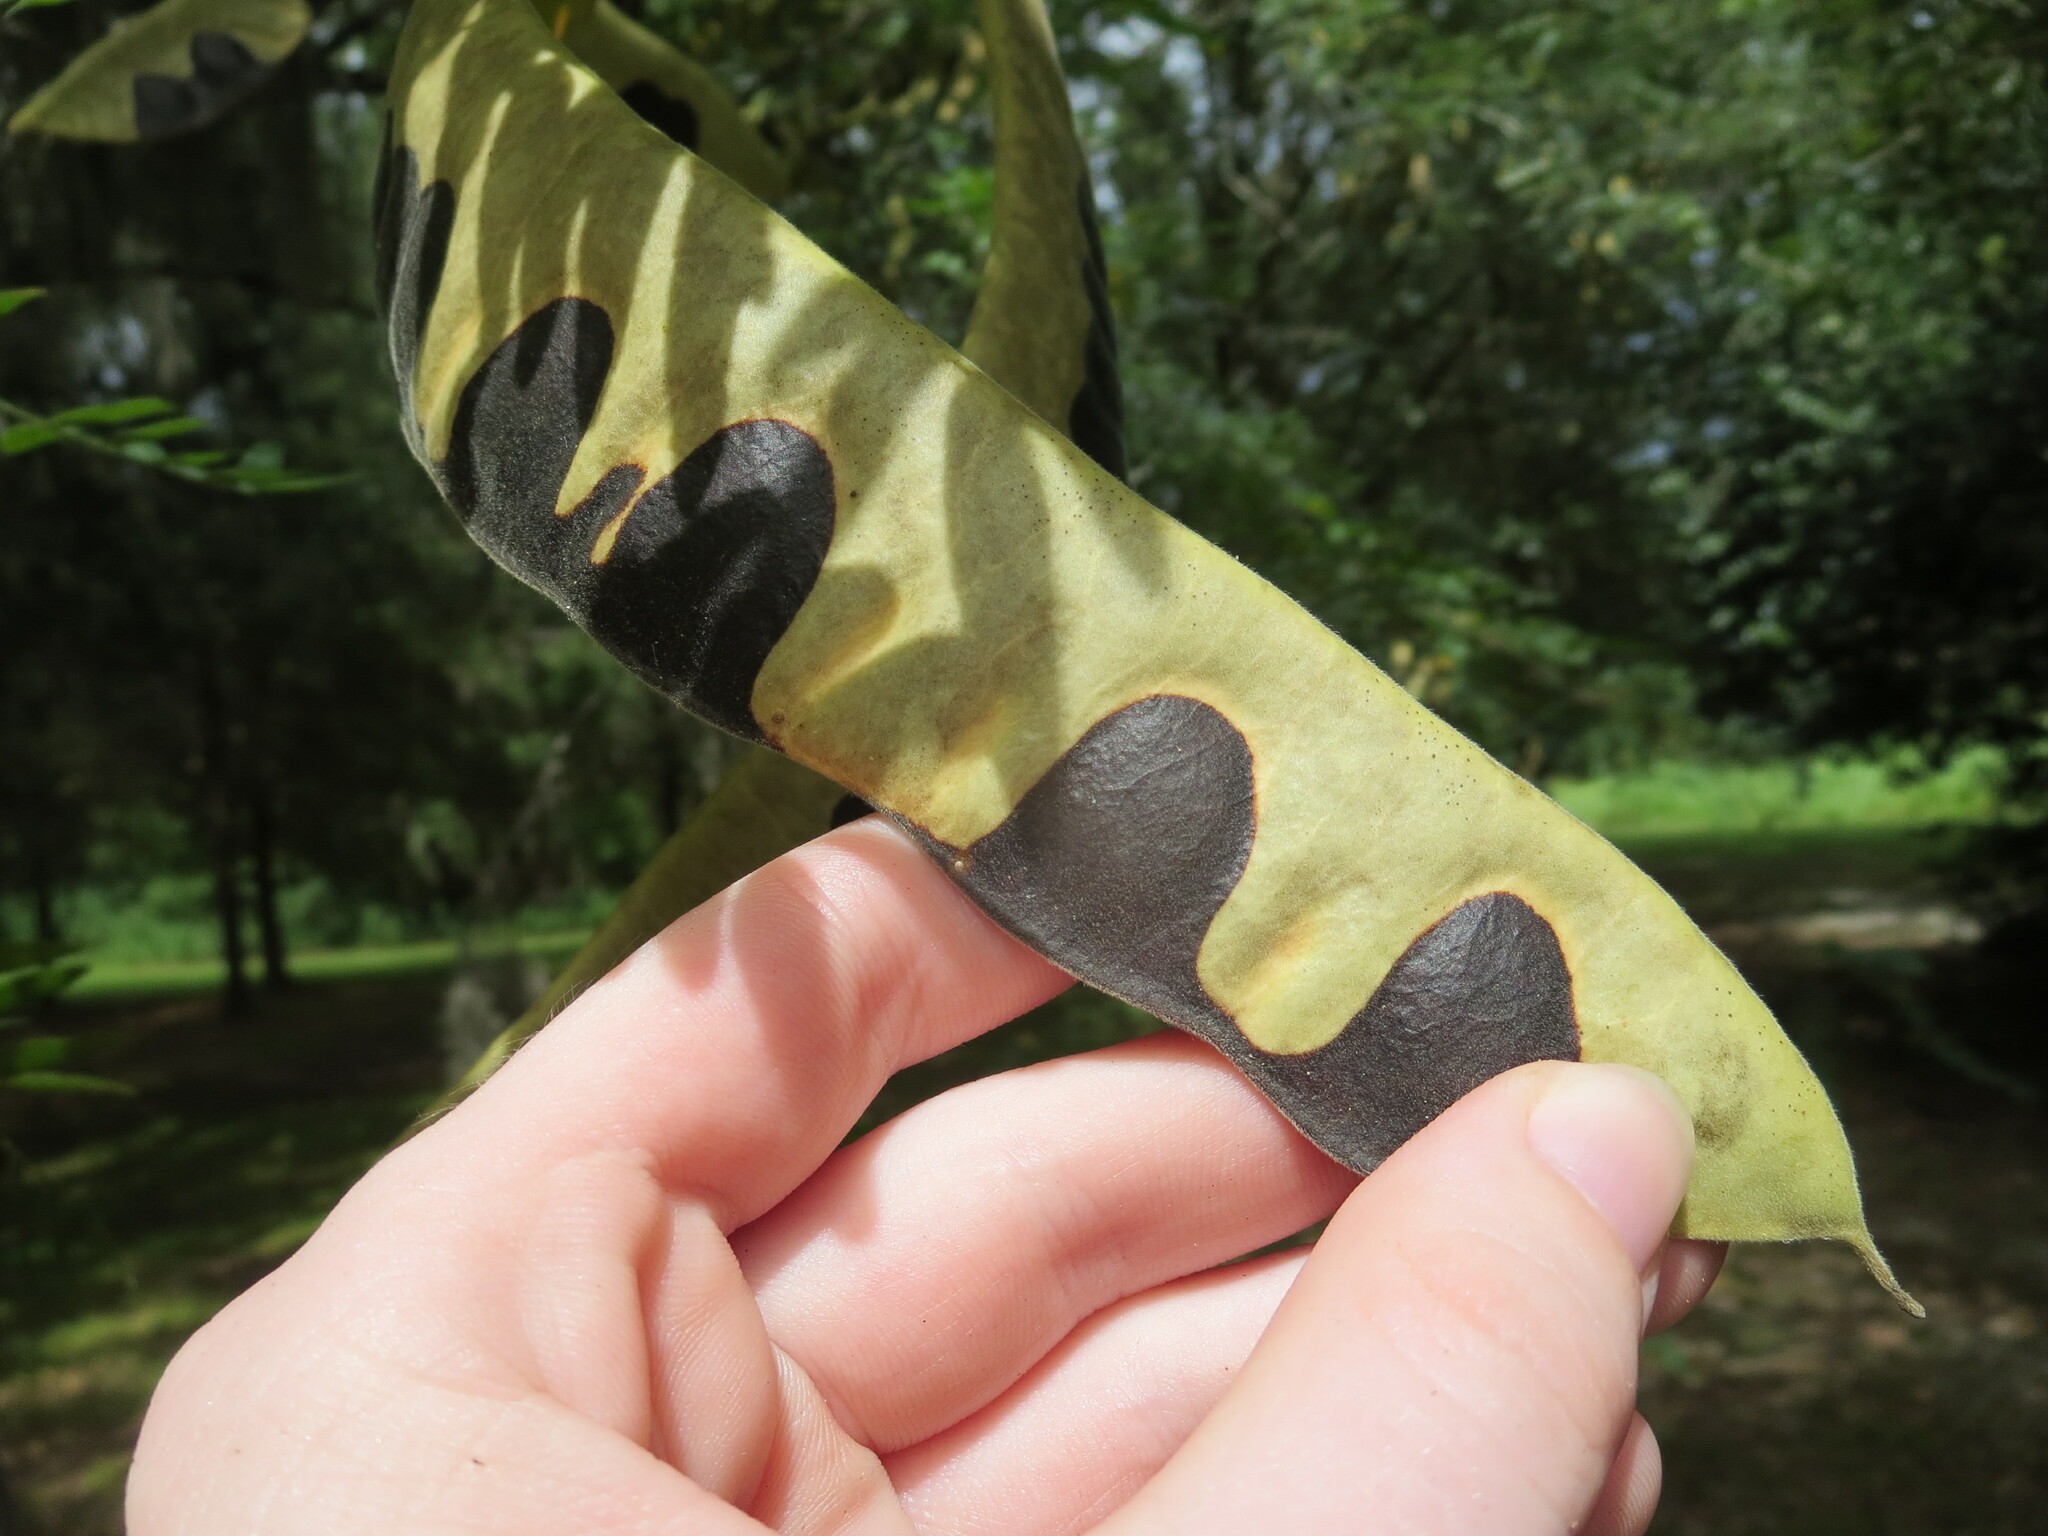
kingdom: Plantae
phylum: Tracheophyta
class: Magnoliopsida
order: Fabales
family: Fabaceae
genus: Gleditsia
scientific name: Gleditsia triacanthos
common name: Common honeylocust
